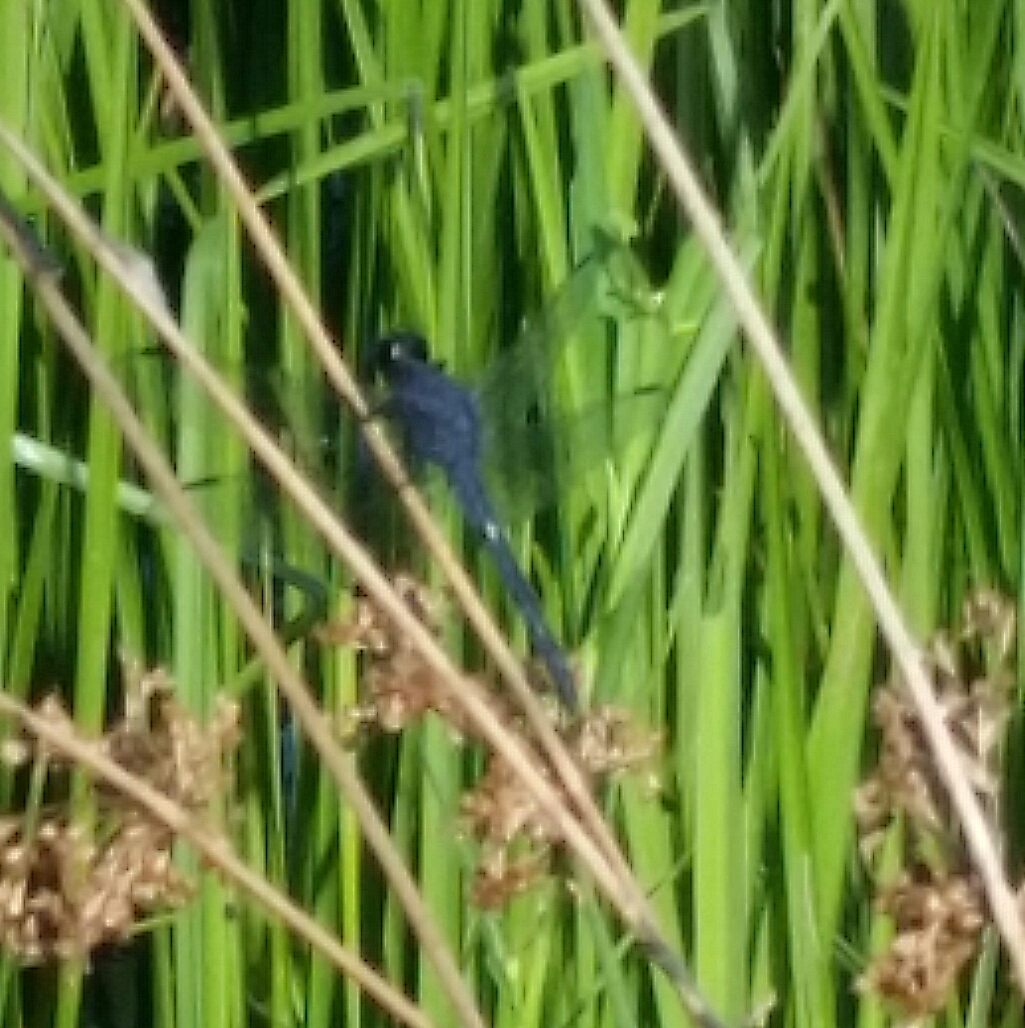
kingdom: Animalia
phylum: Arthropoda
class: Insecta
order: Odonata
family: Libellulidae
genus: Libellula
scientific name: Libellula incesta
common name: Slaty skimmer
